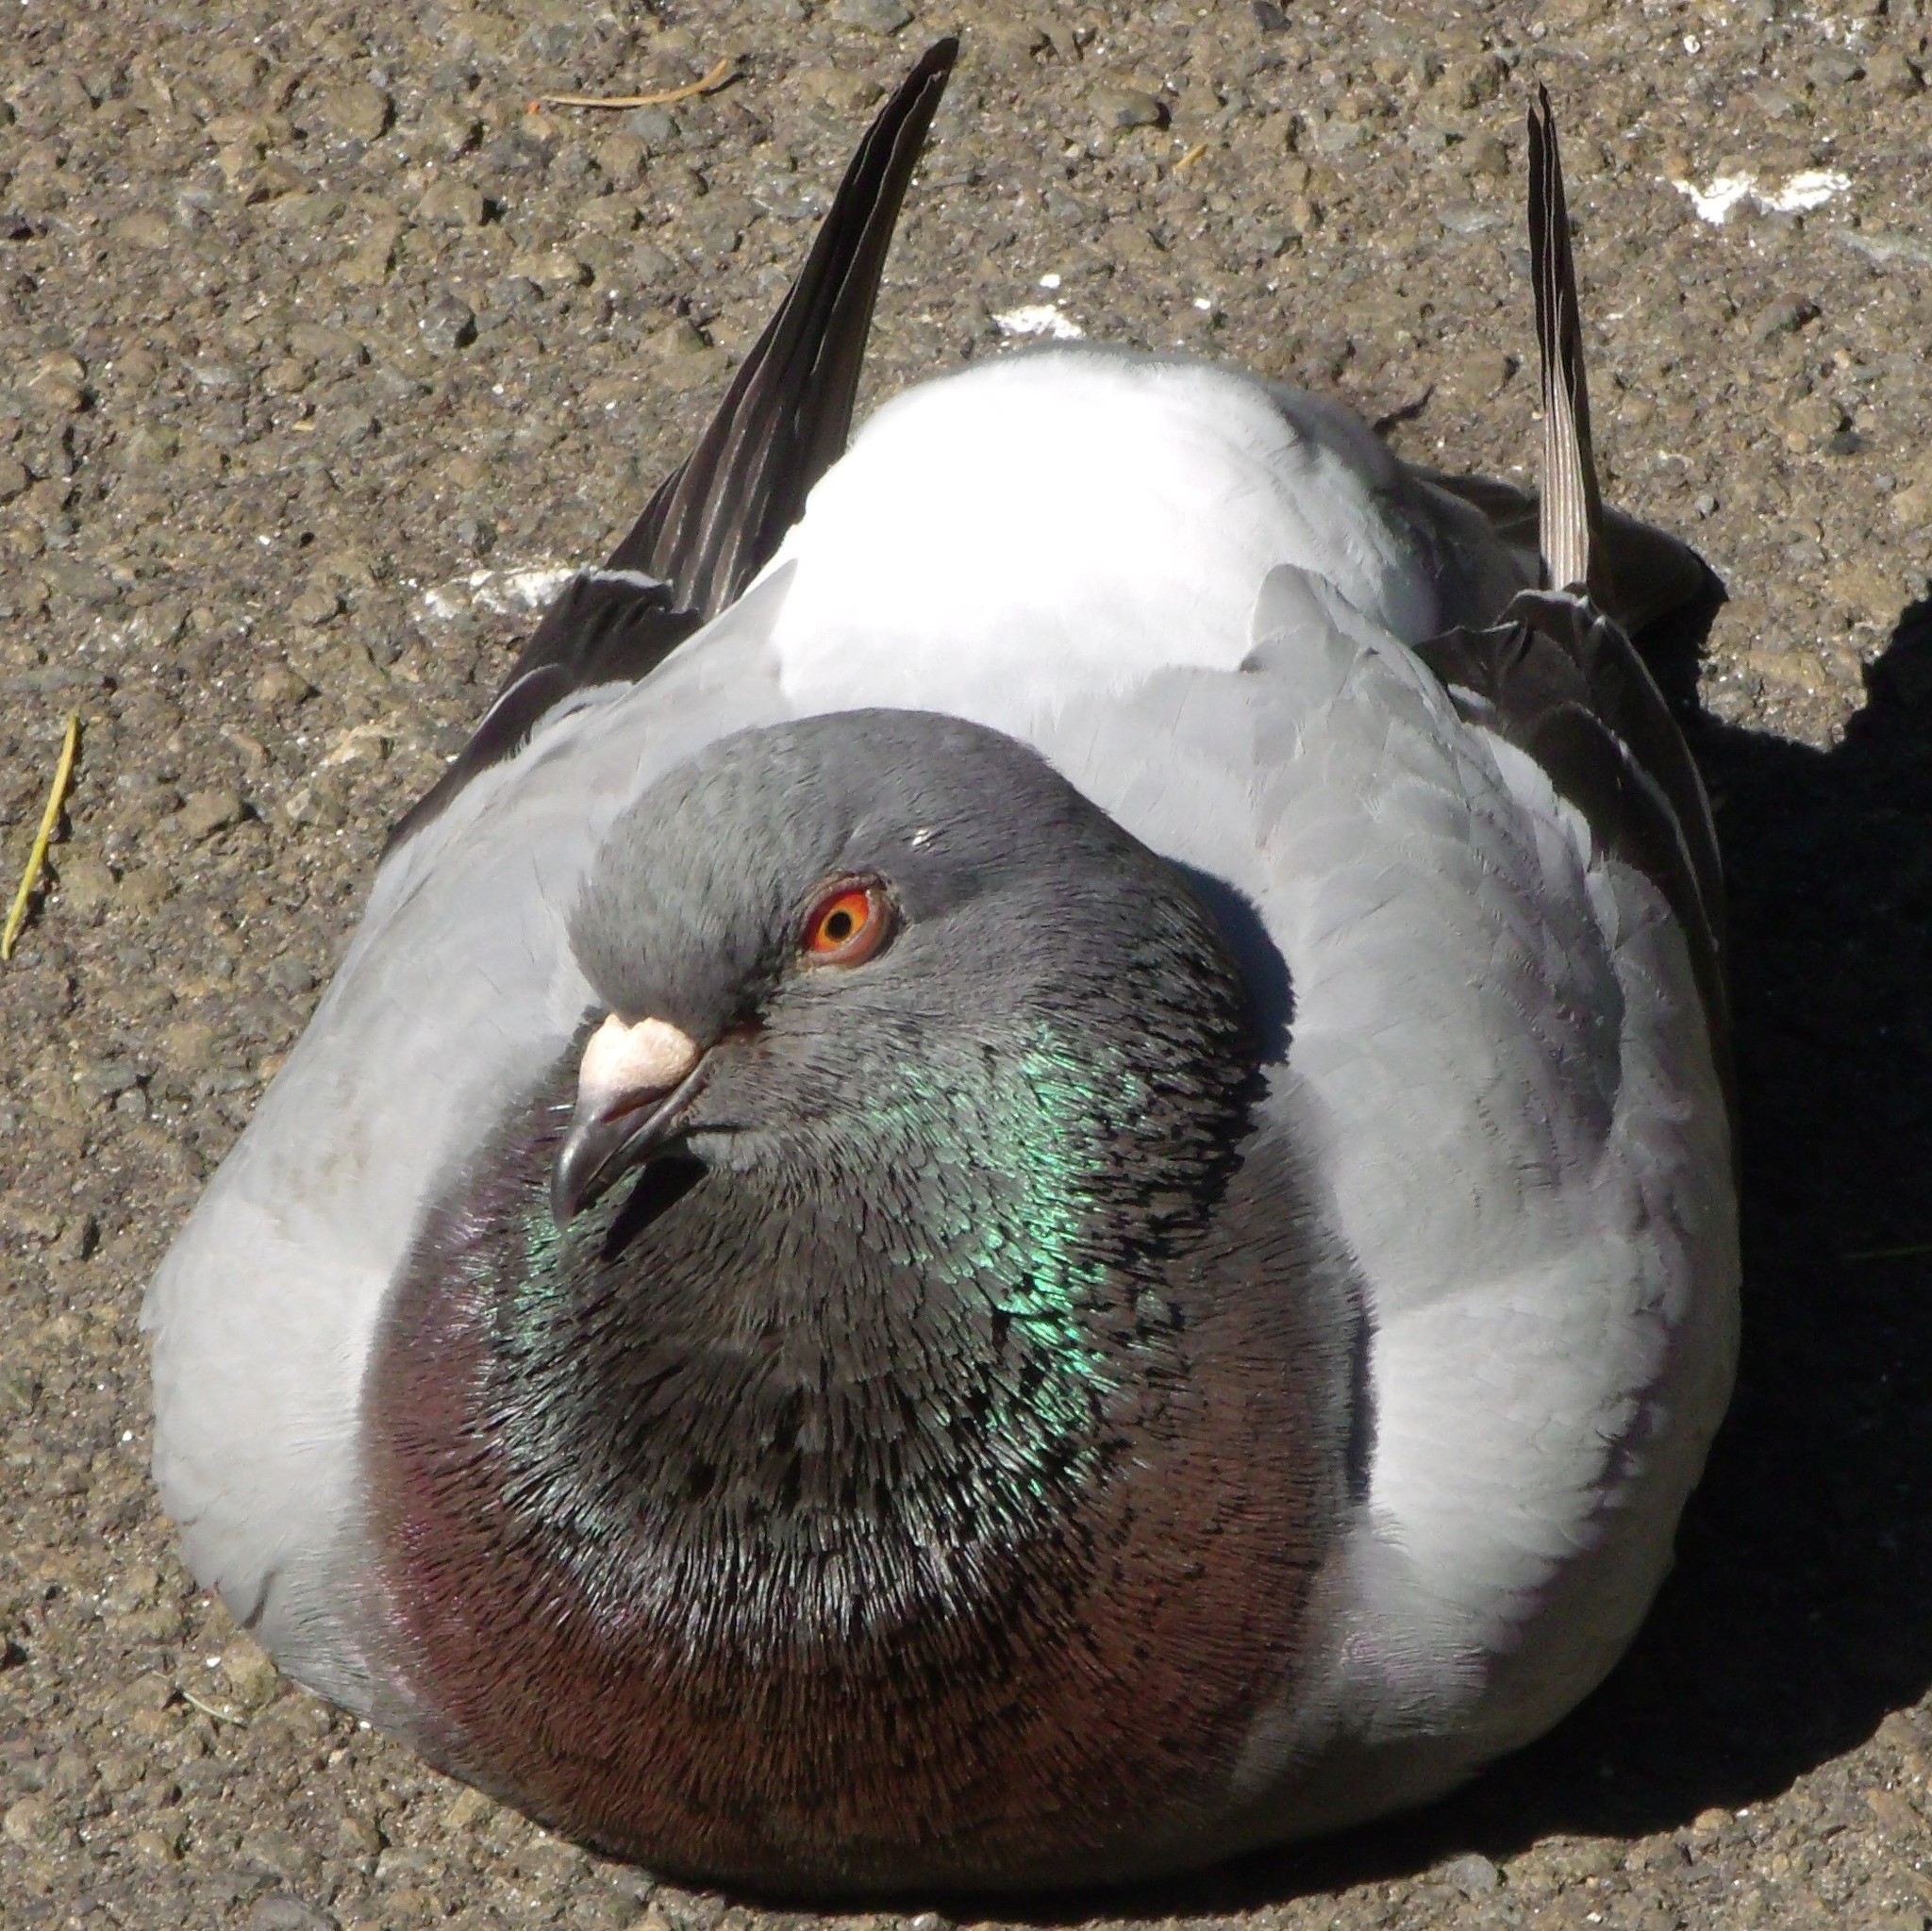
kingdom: Animalia
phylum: Chordata
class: Aves
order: Columbiformes
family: Columbidae
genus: Columba
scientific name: Columba livia
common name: Rock pigeon
